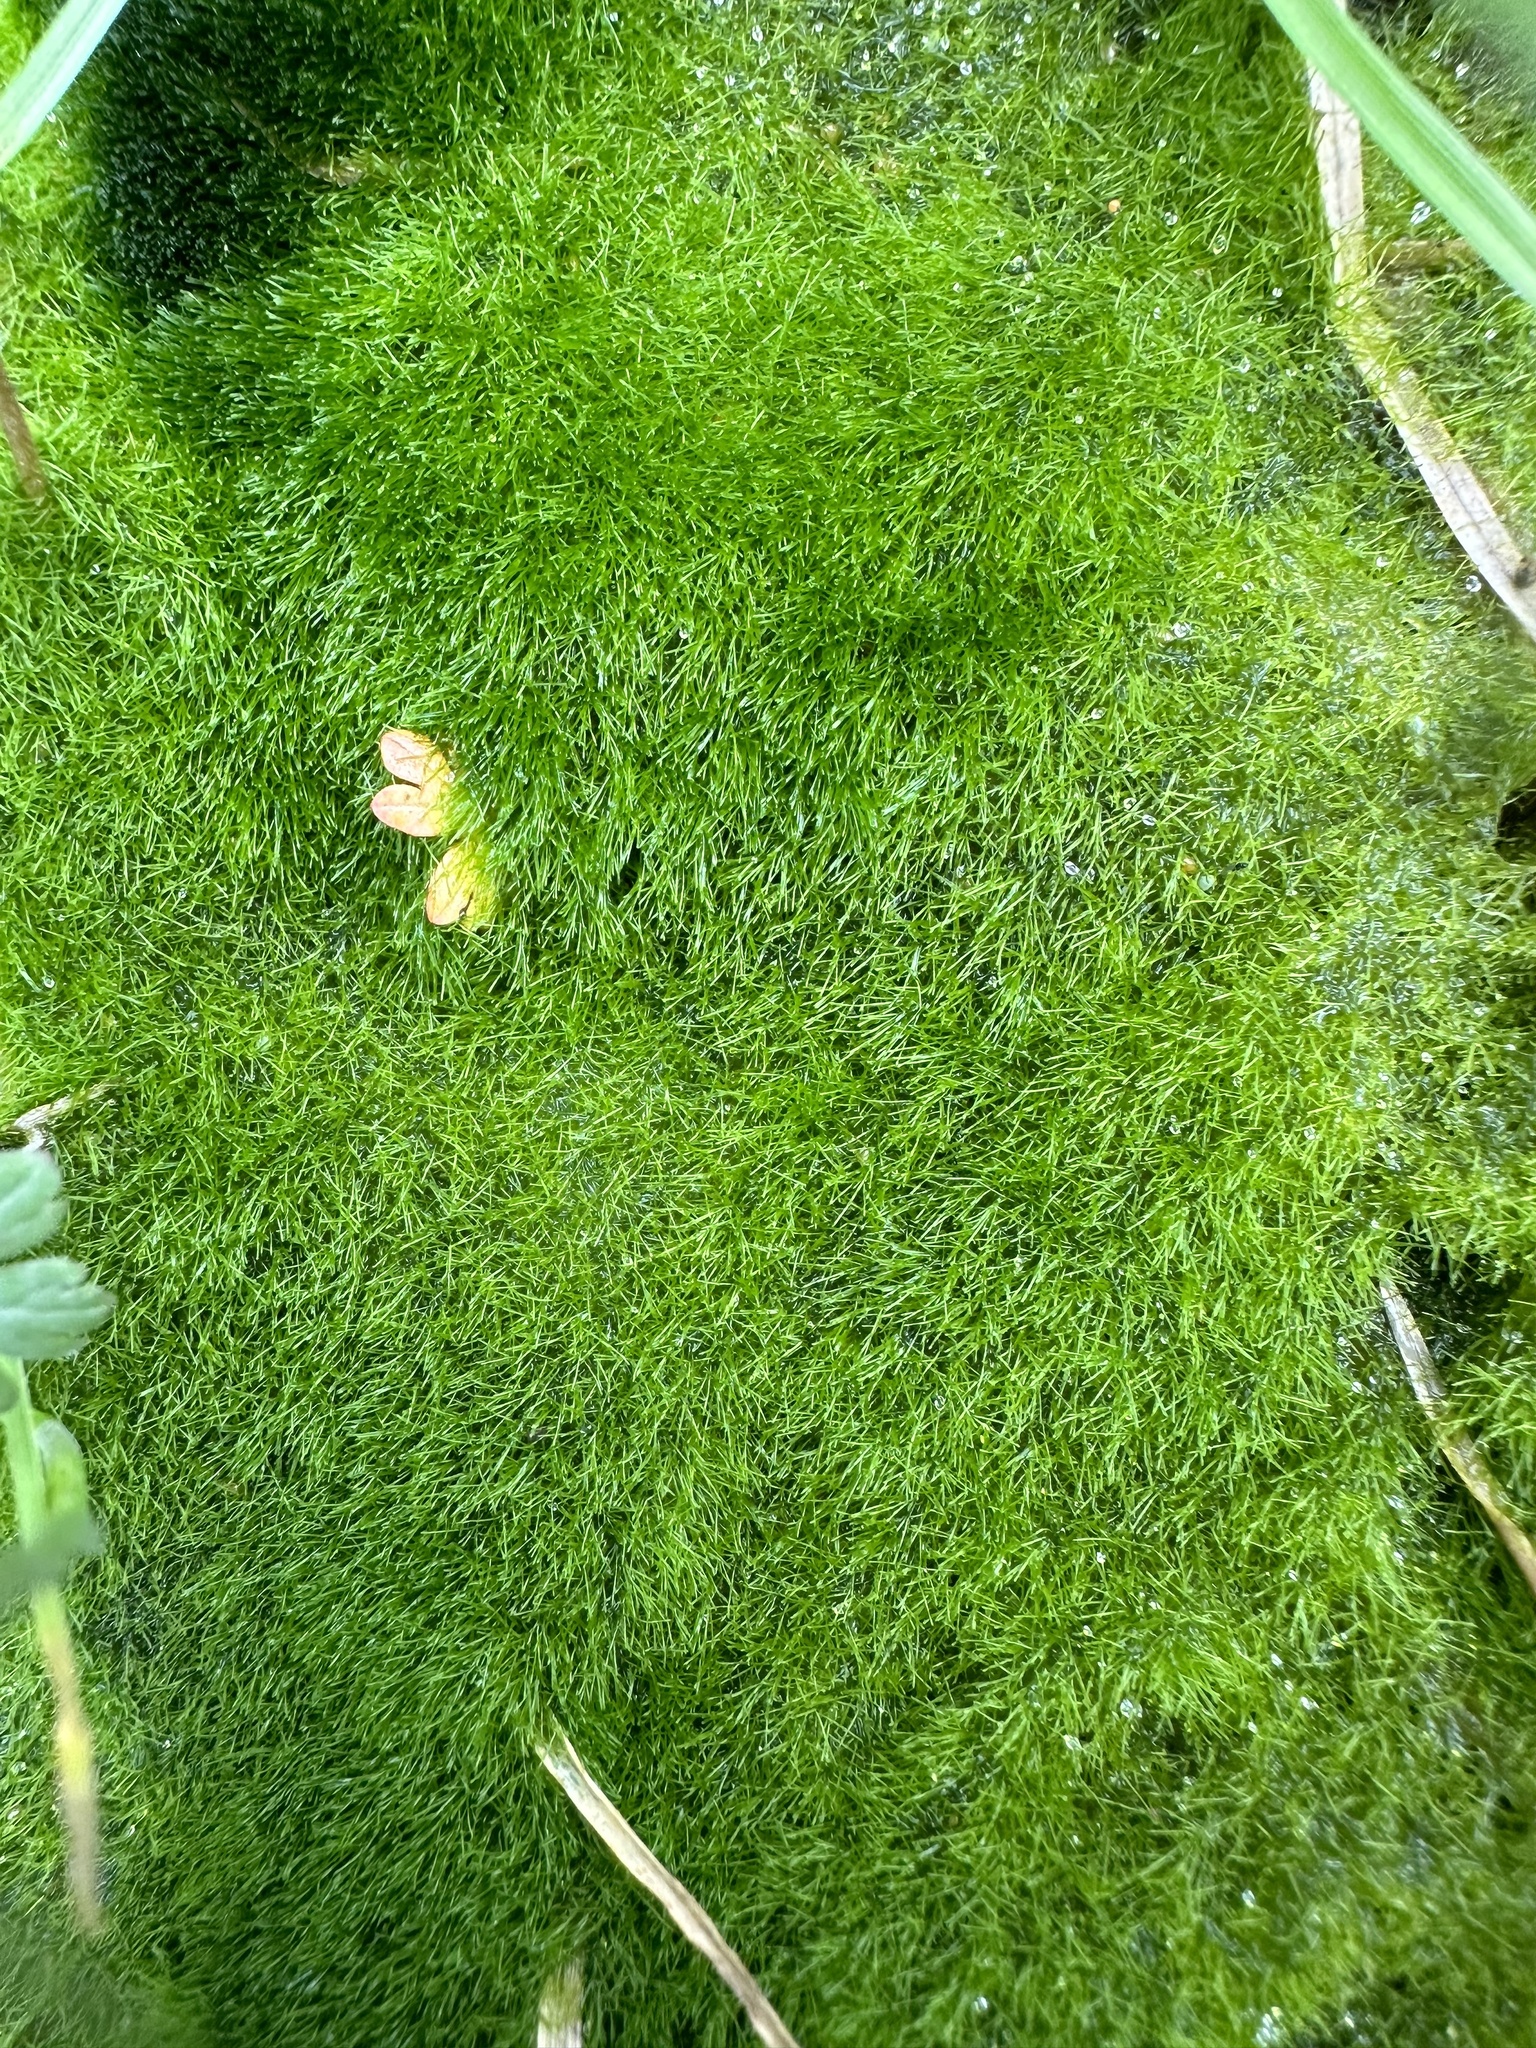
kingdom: Chromista
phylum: Ochrophyta
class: Xanthophyceae
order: Vaucheriales
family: Vaucheriaceae
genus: Vaucheria
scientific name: Vaucheria
